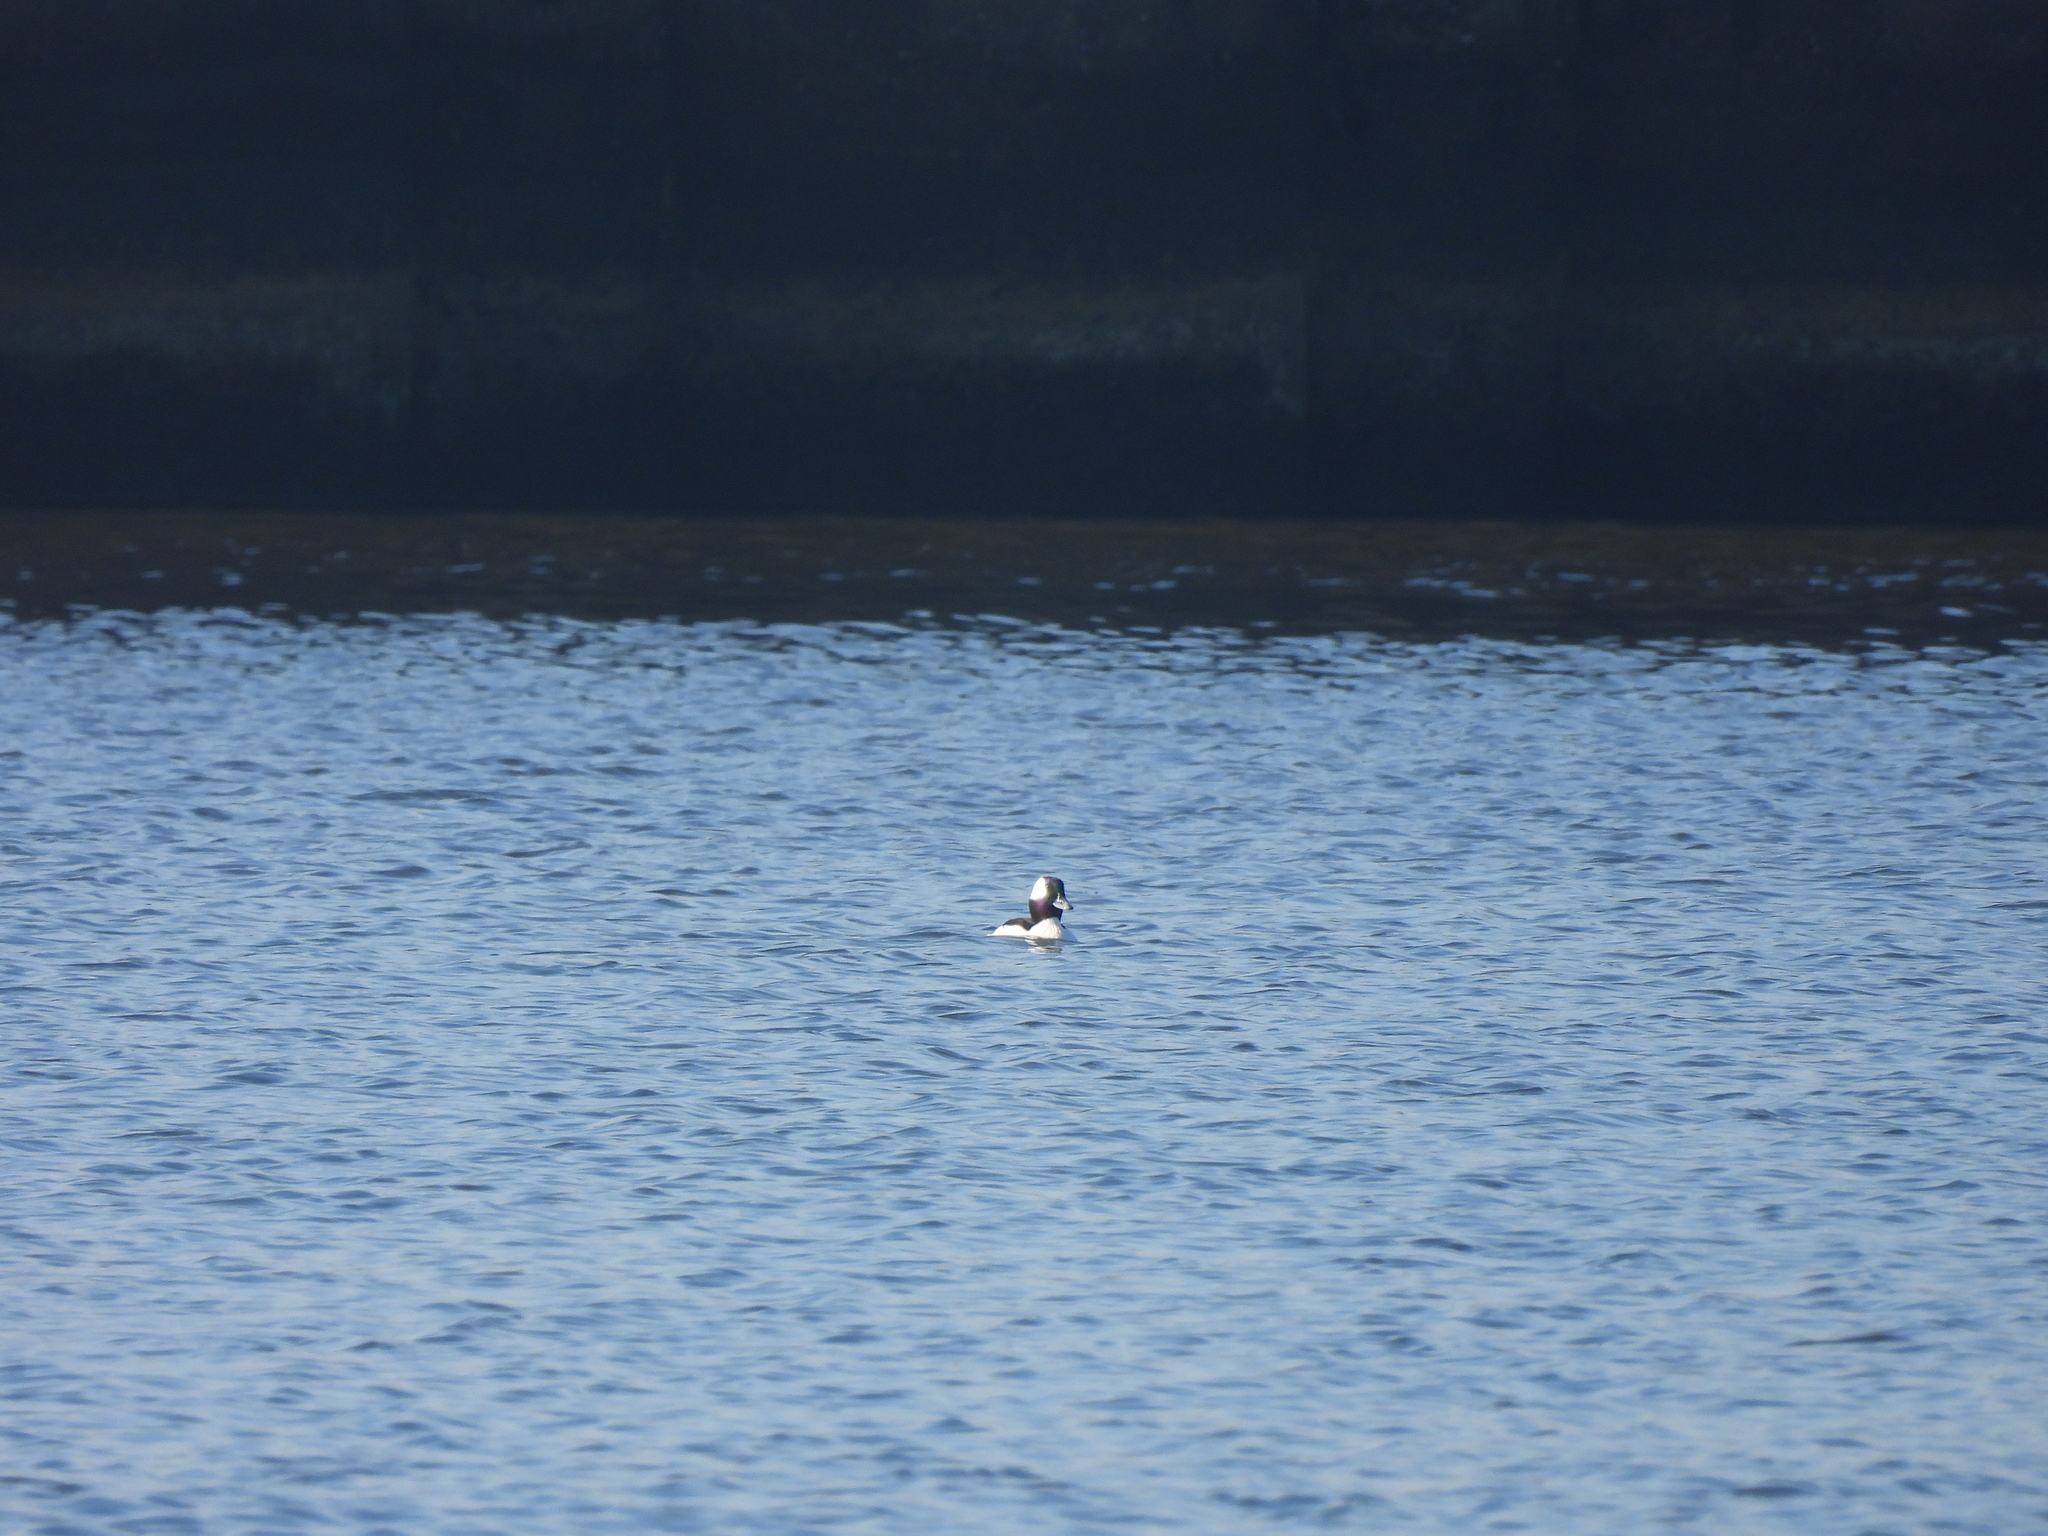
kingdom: Animalia
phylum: Chordata
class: Aves
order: Anseriformes
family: Anatidae
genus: Bucephala
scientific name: Bucephala albeola
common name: Bufflehead
